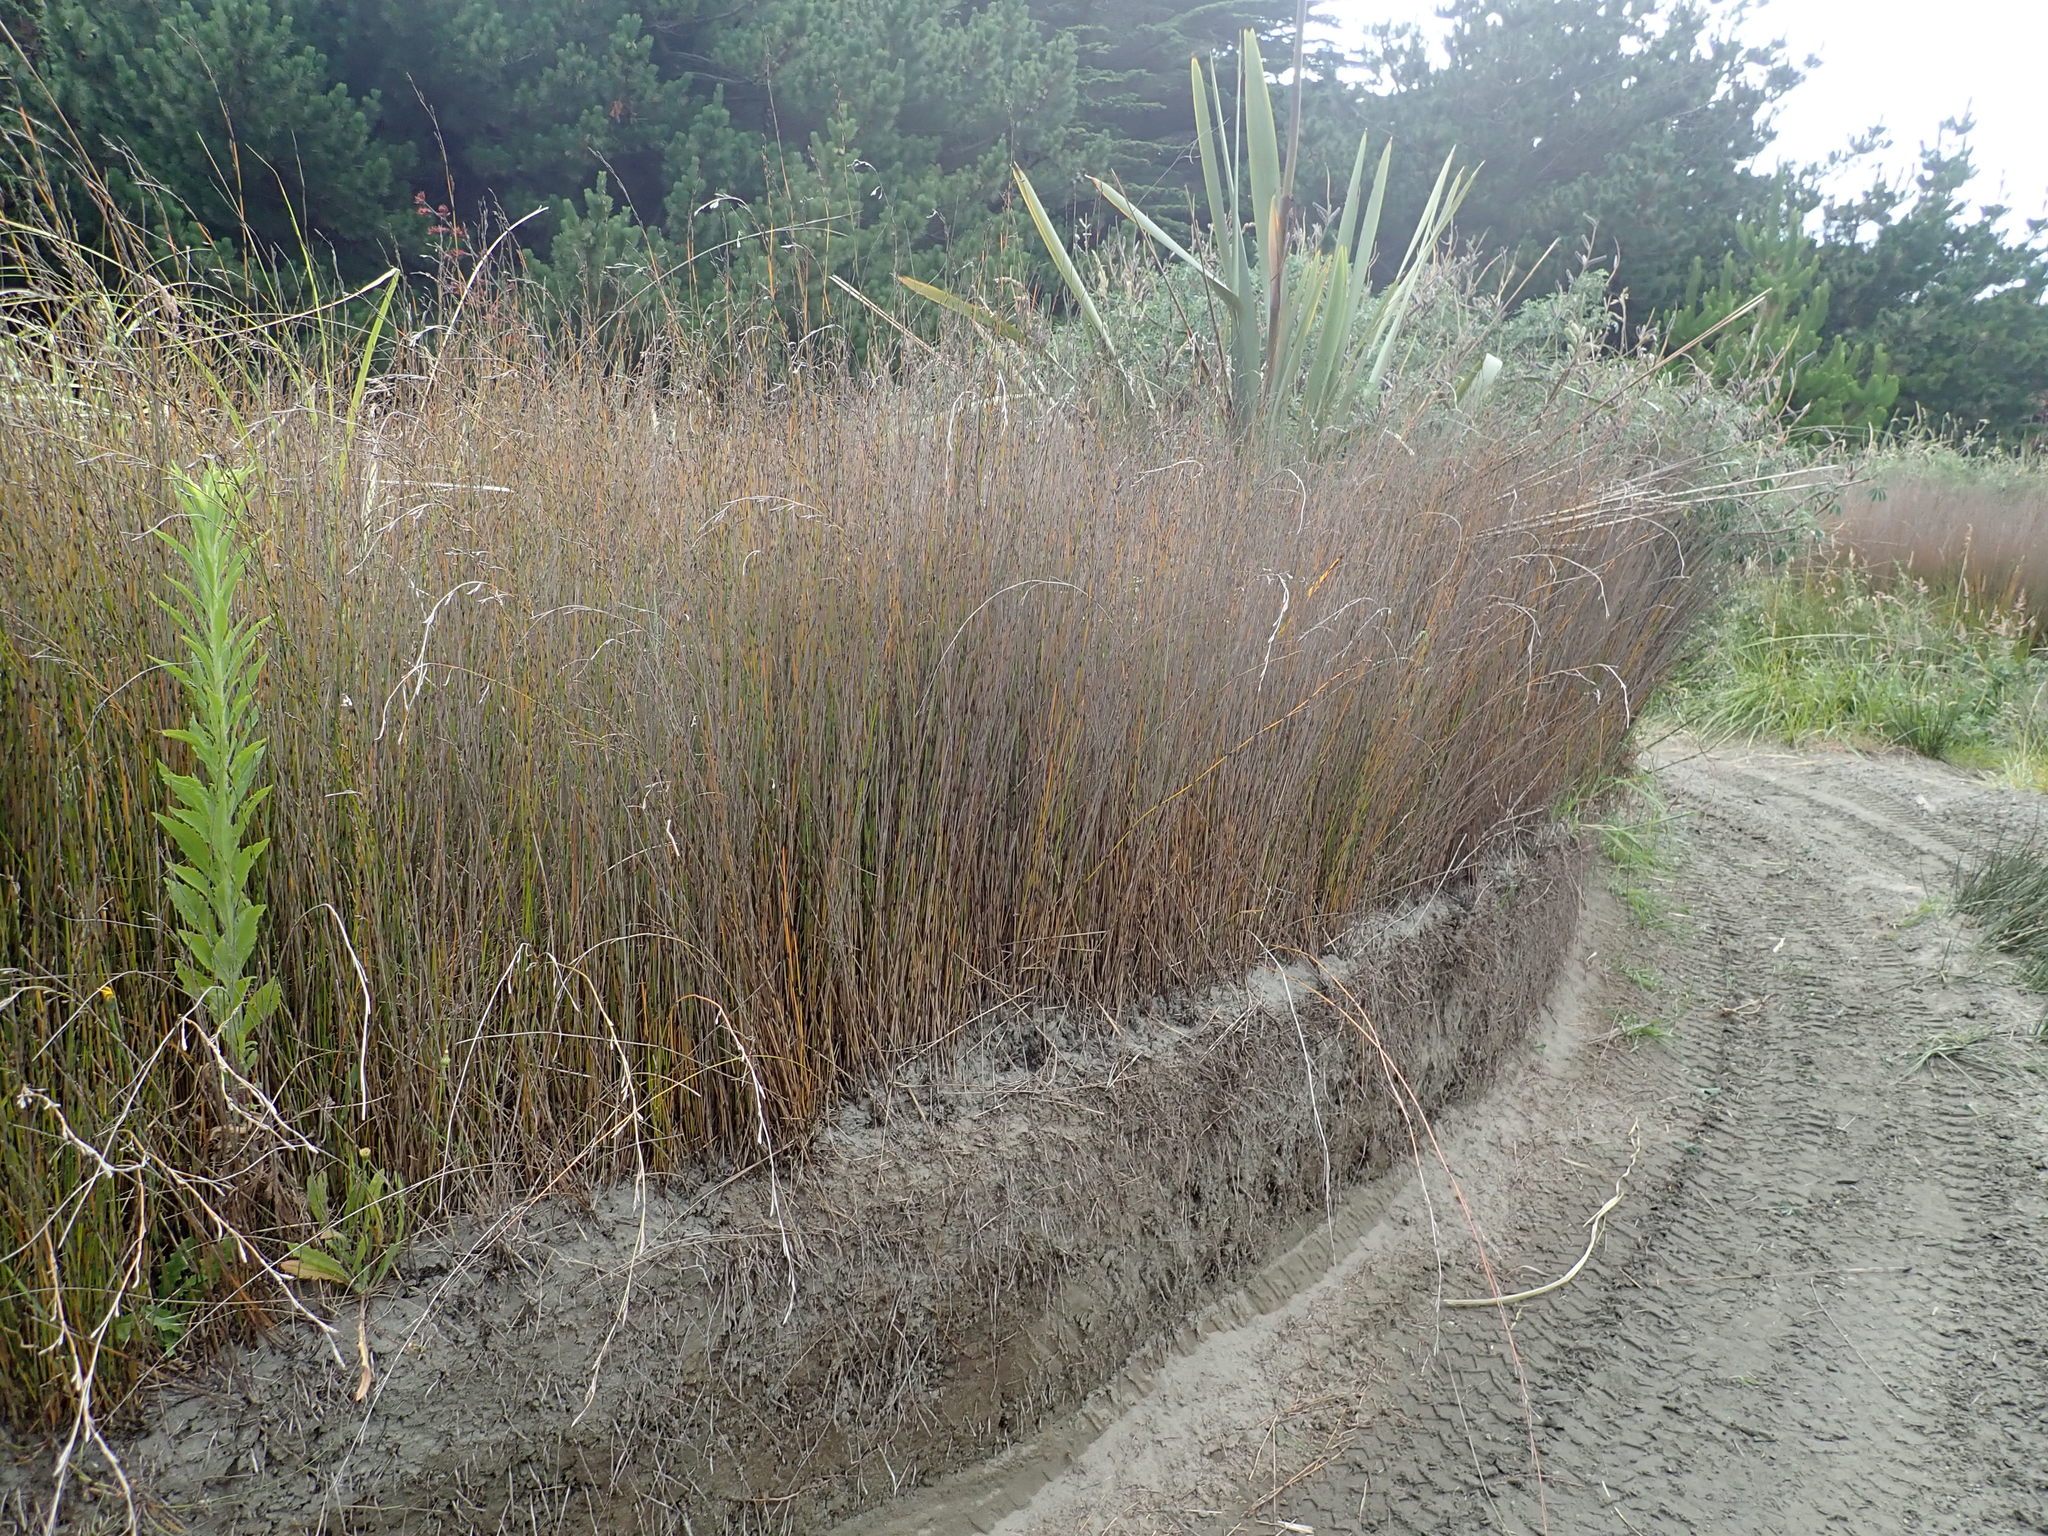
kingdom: Plantae
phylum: Tracheophyta
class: Liliopsida
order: Poales
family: Restionaceae
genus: Apodasmia
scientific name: Apodasmia similis
